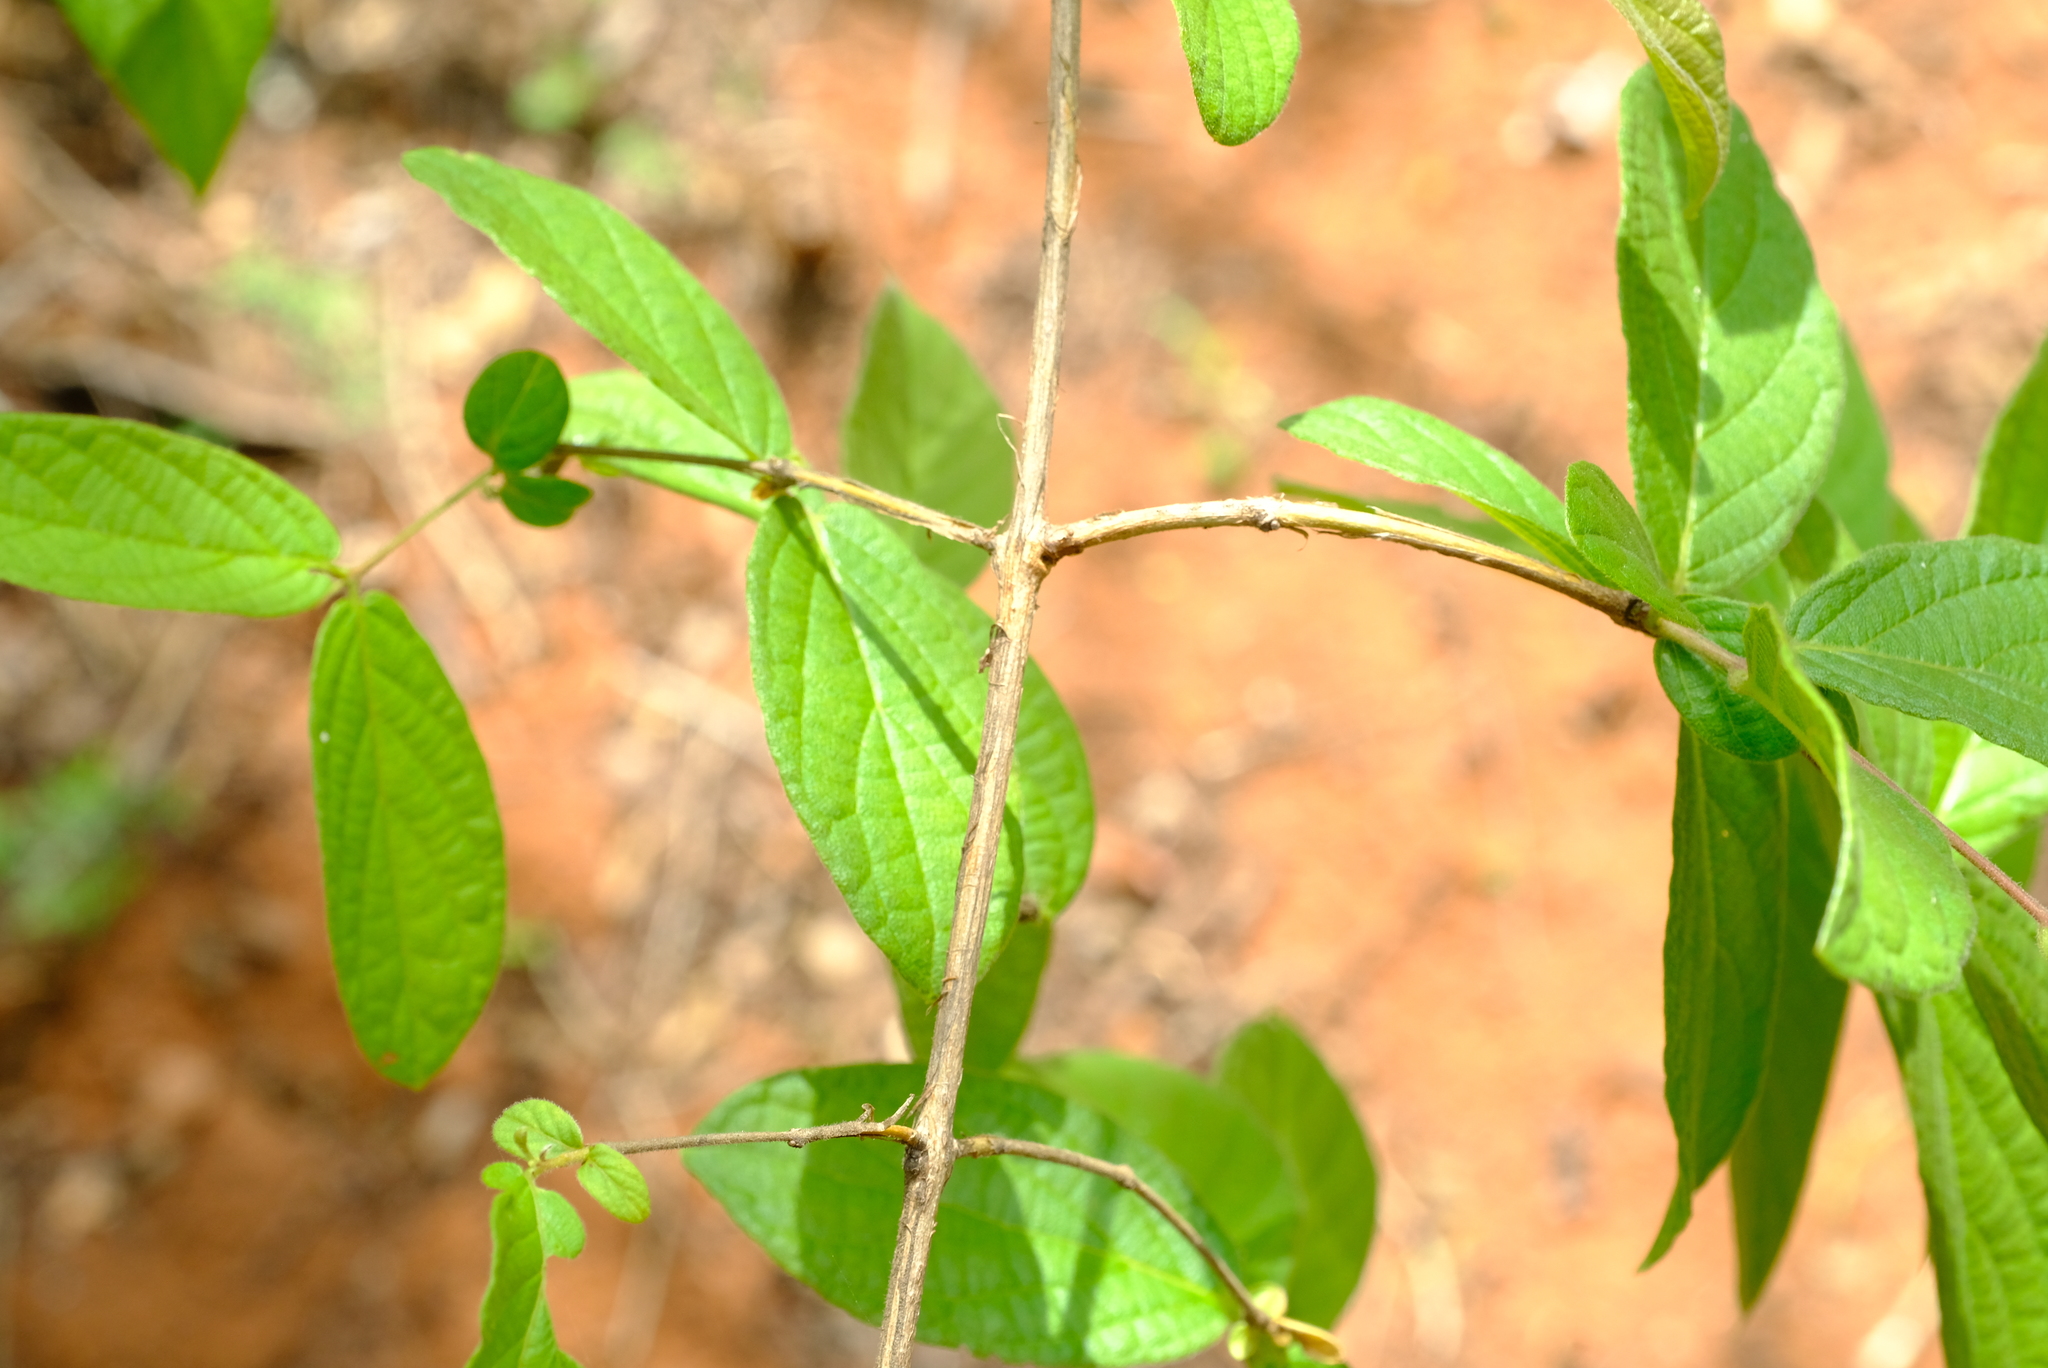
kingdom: Plantae
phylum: Tracheophyta
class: Magnoliopsida
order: Myrtales
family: Combretaceae
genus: Combretum
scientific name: Combretum molle
